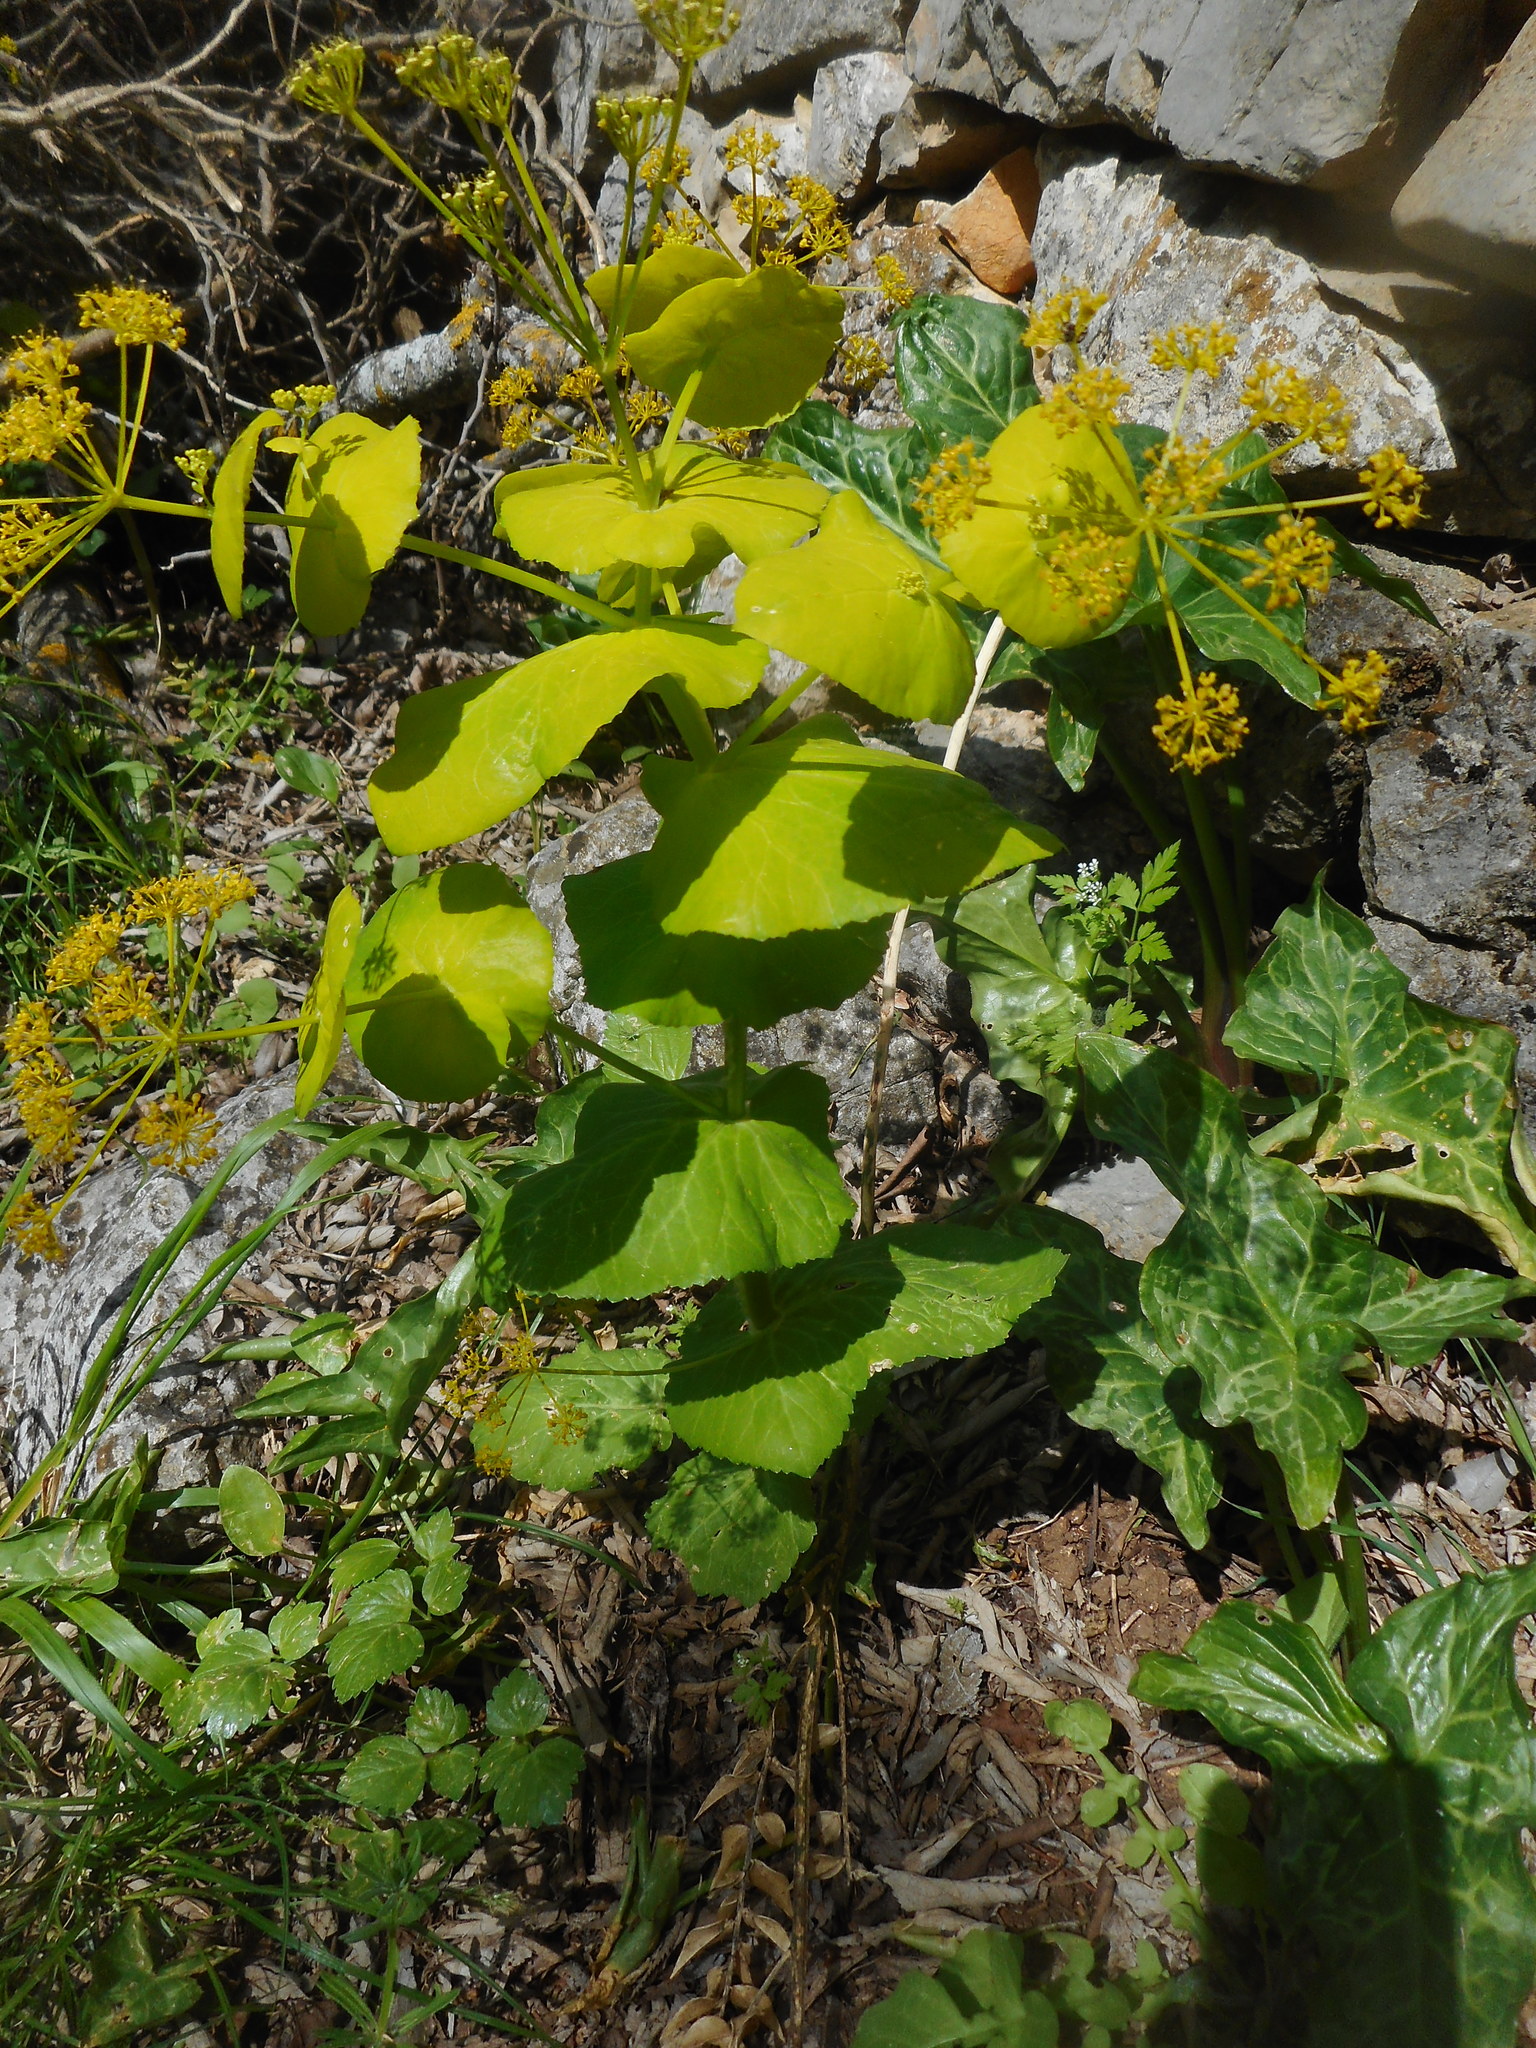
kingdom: Plantae
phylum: Tracheophyta
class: Magnoliopsida
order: Apiales
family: Apiaceae
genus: Smyrnium
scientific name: Smyrnium perfoliatum
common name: Perfoliate alexanders
